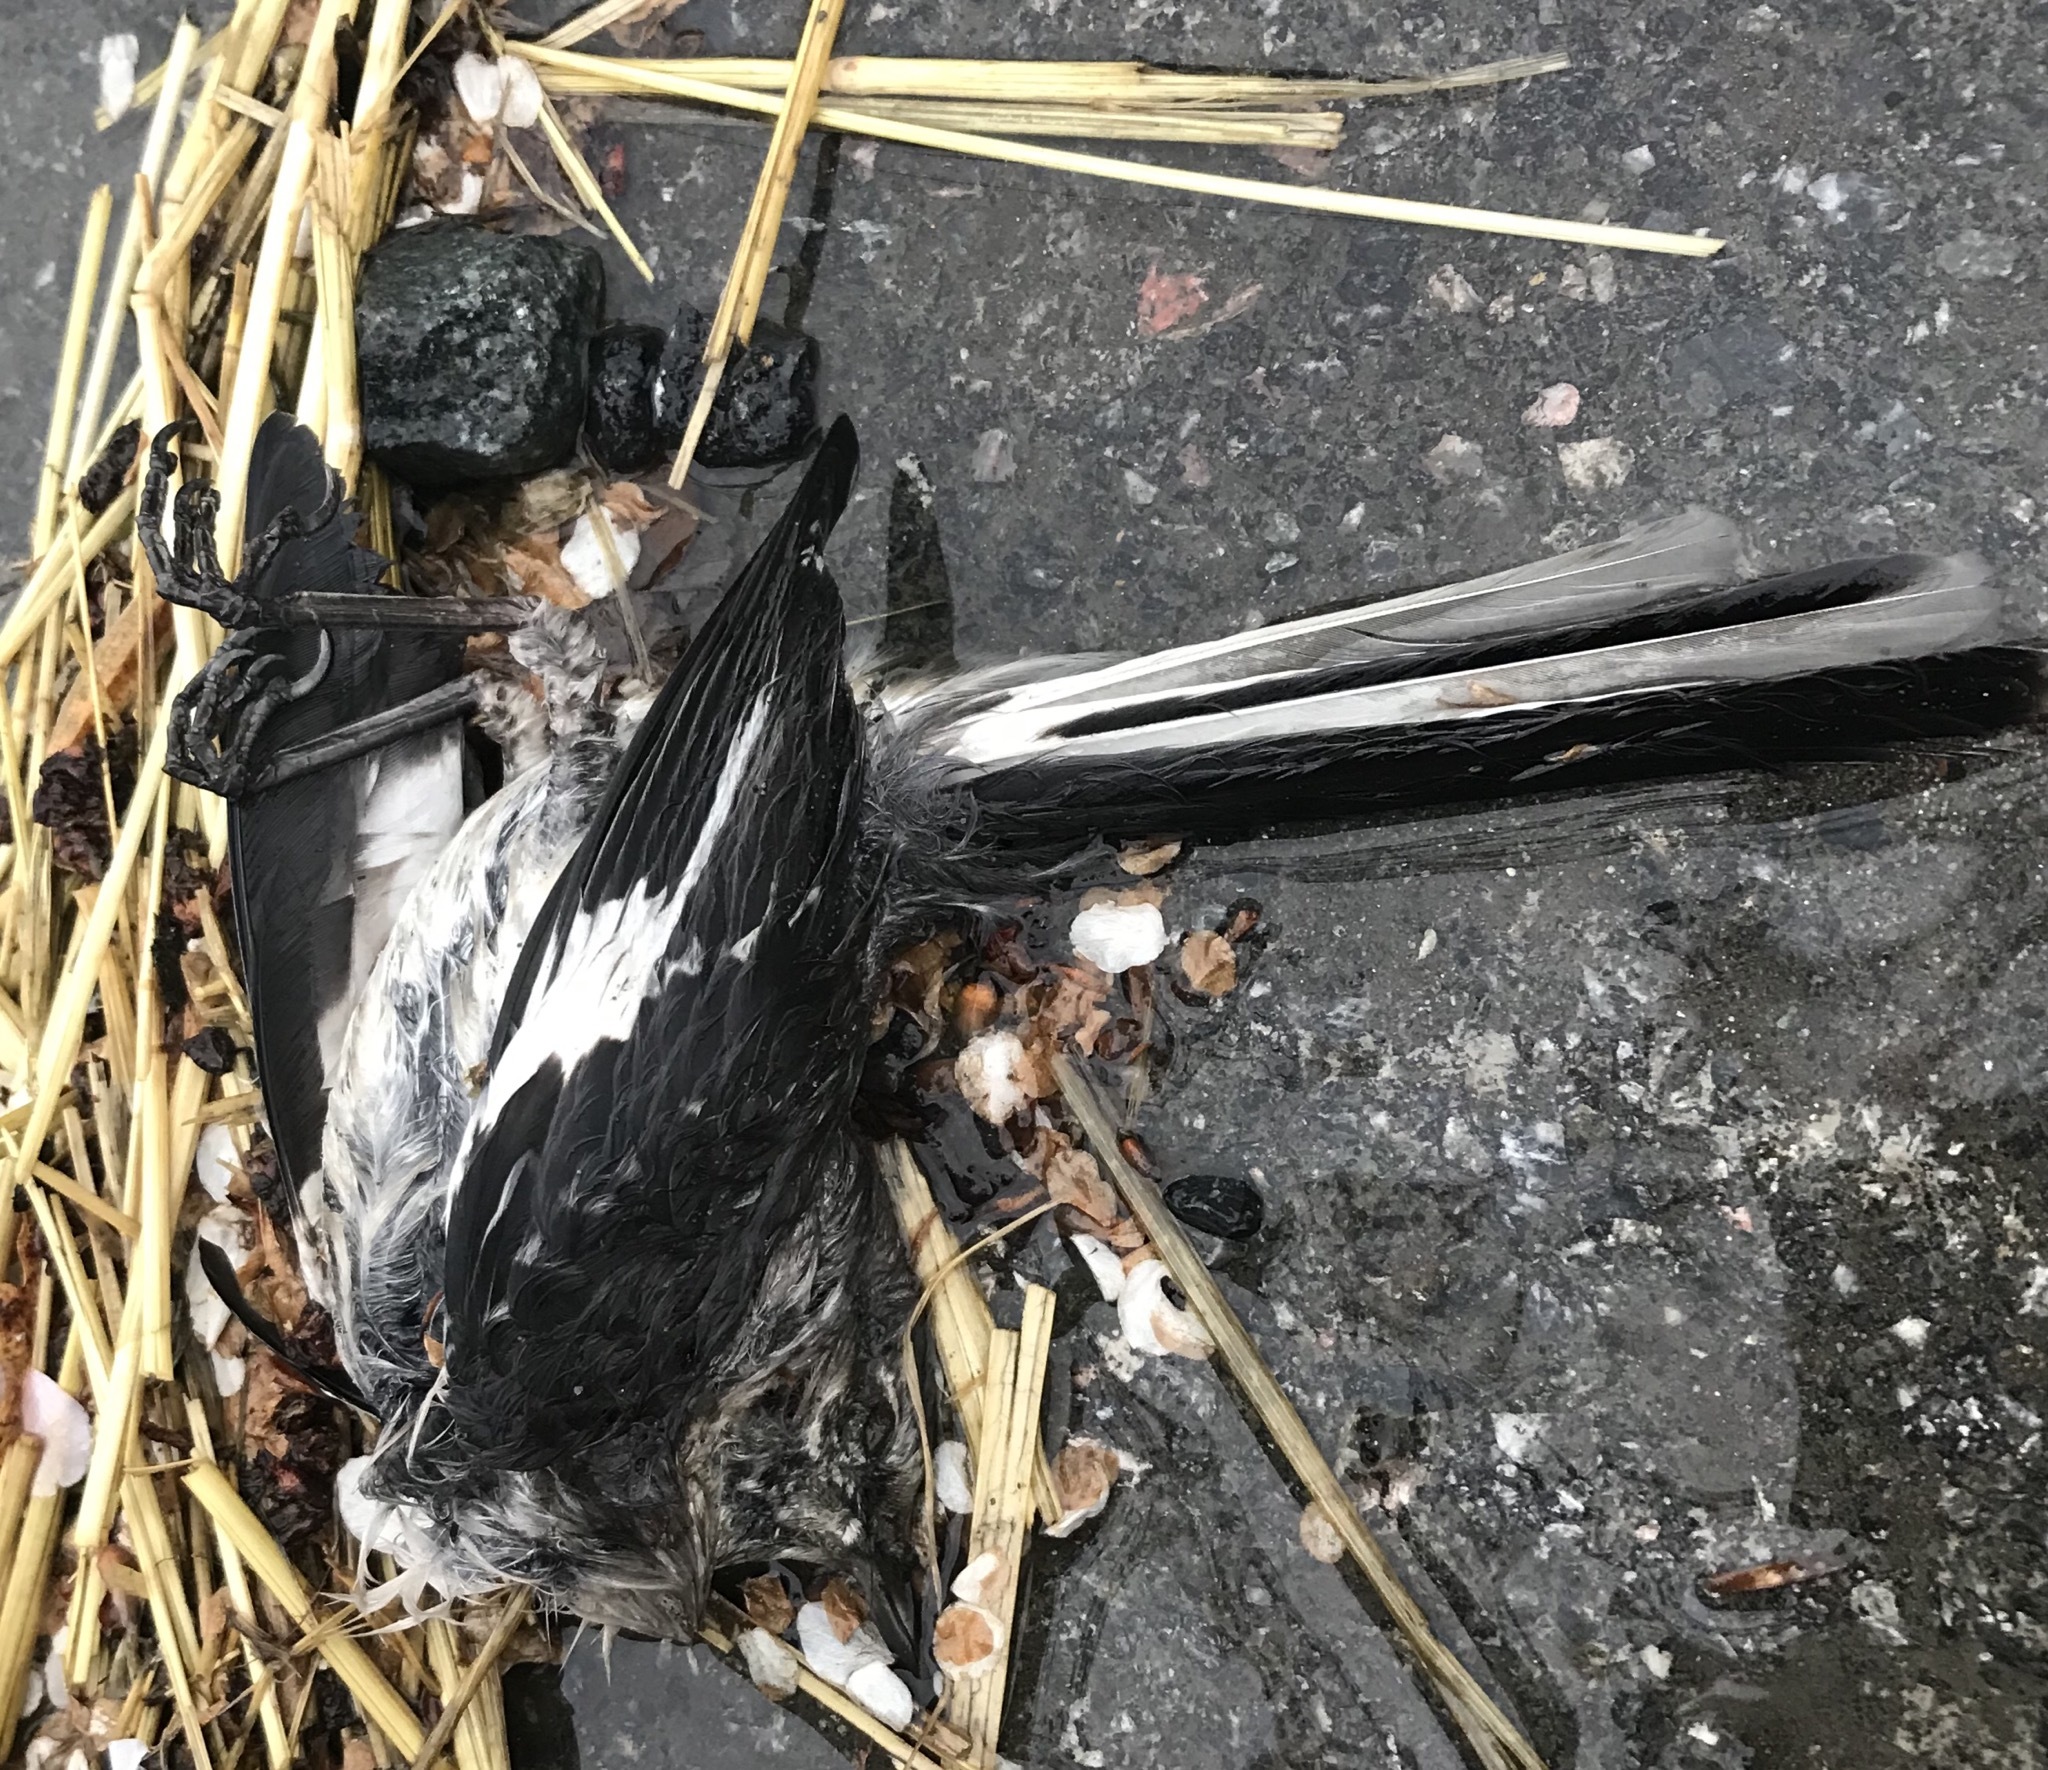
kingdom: Animalia
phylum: Chordata
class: Aves
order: Passeriformes
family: Mimidae
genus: Mimus
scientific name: Mimus polyglottos
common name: Northern mockingbird
